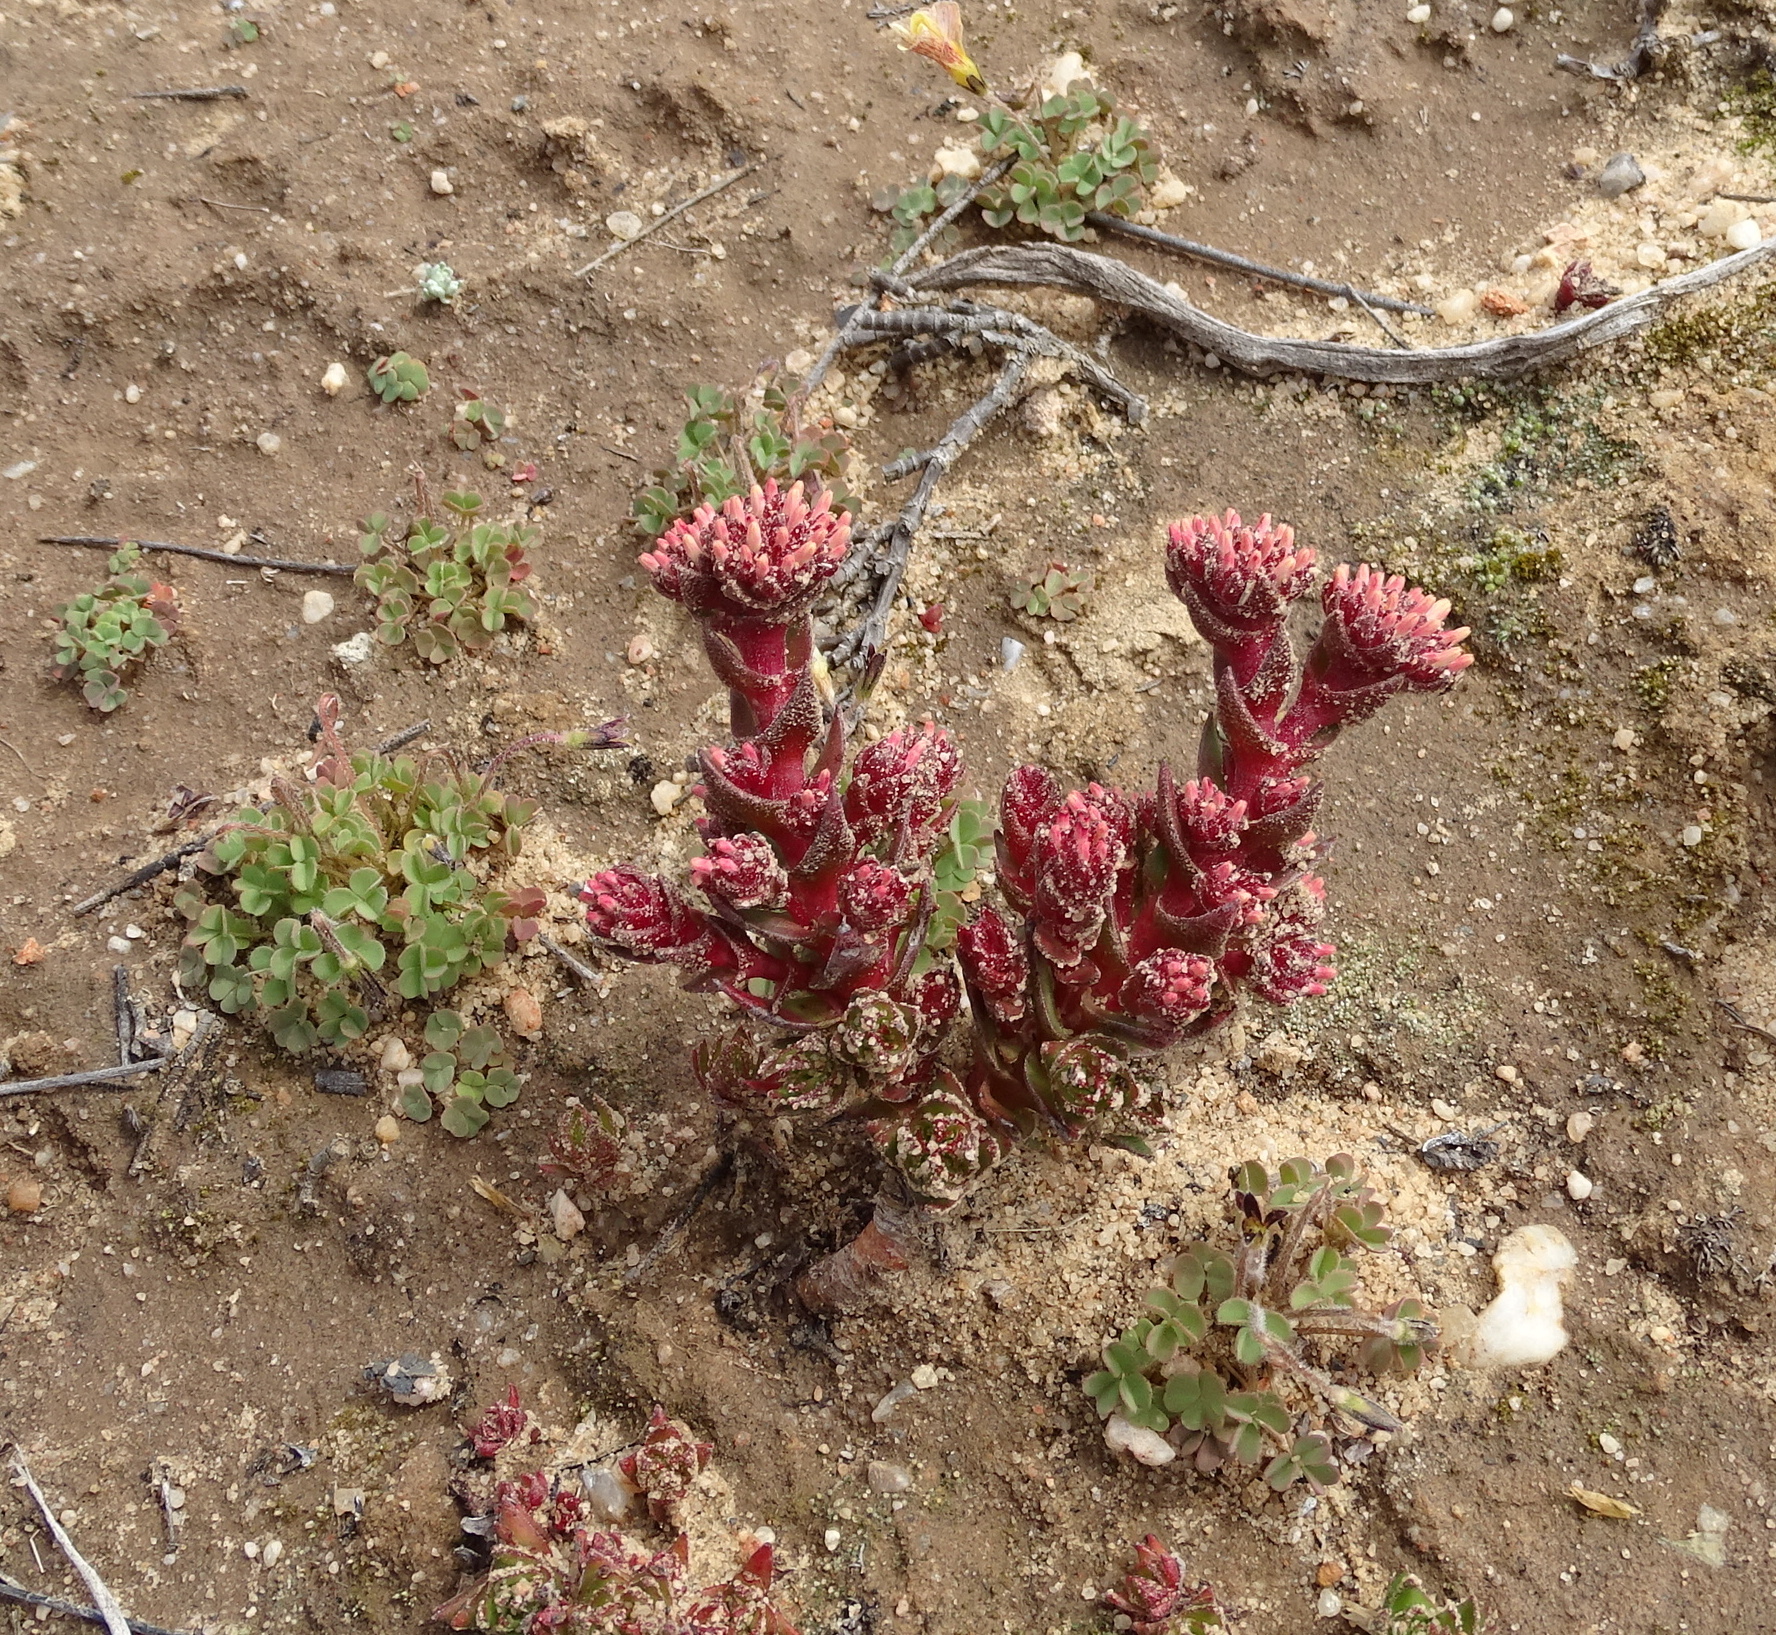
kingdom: Plantae
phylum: Tracheophyta
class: Magnoliopsida
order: Saxifragales
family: Crassulaceae
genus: Crassula
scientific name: Crassula alpestris
